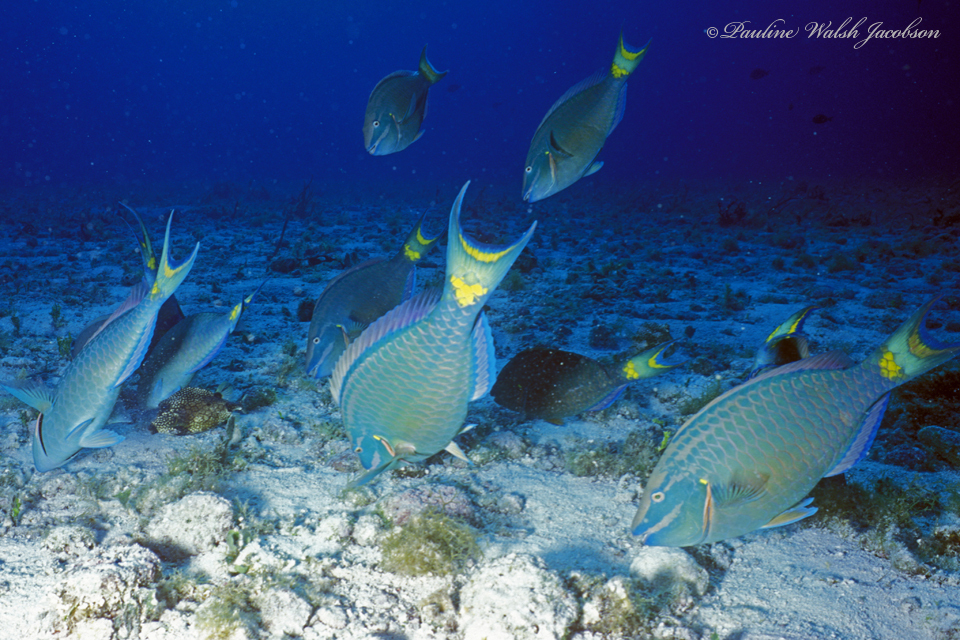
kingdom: Animalia
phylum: Chordata
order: Perciformes
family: Scaridae
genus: Sparisoma
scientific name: Sparisoma viride
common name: Stoplight parrotfish
